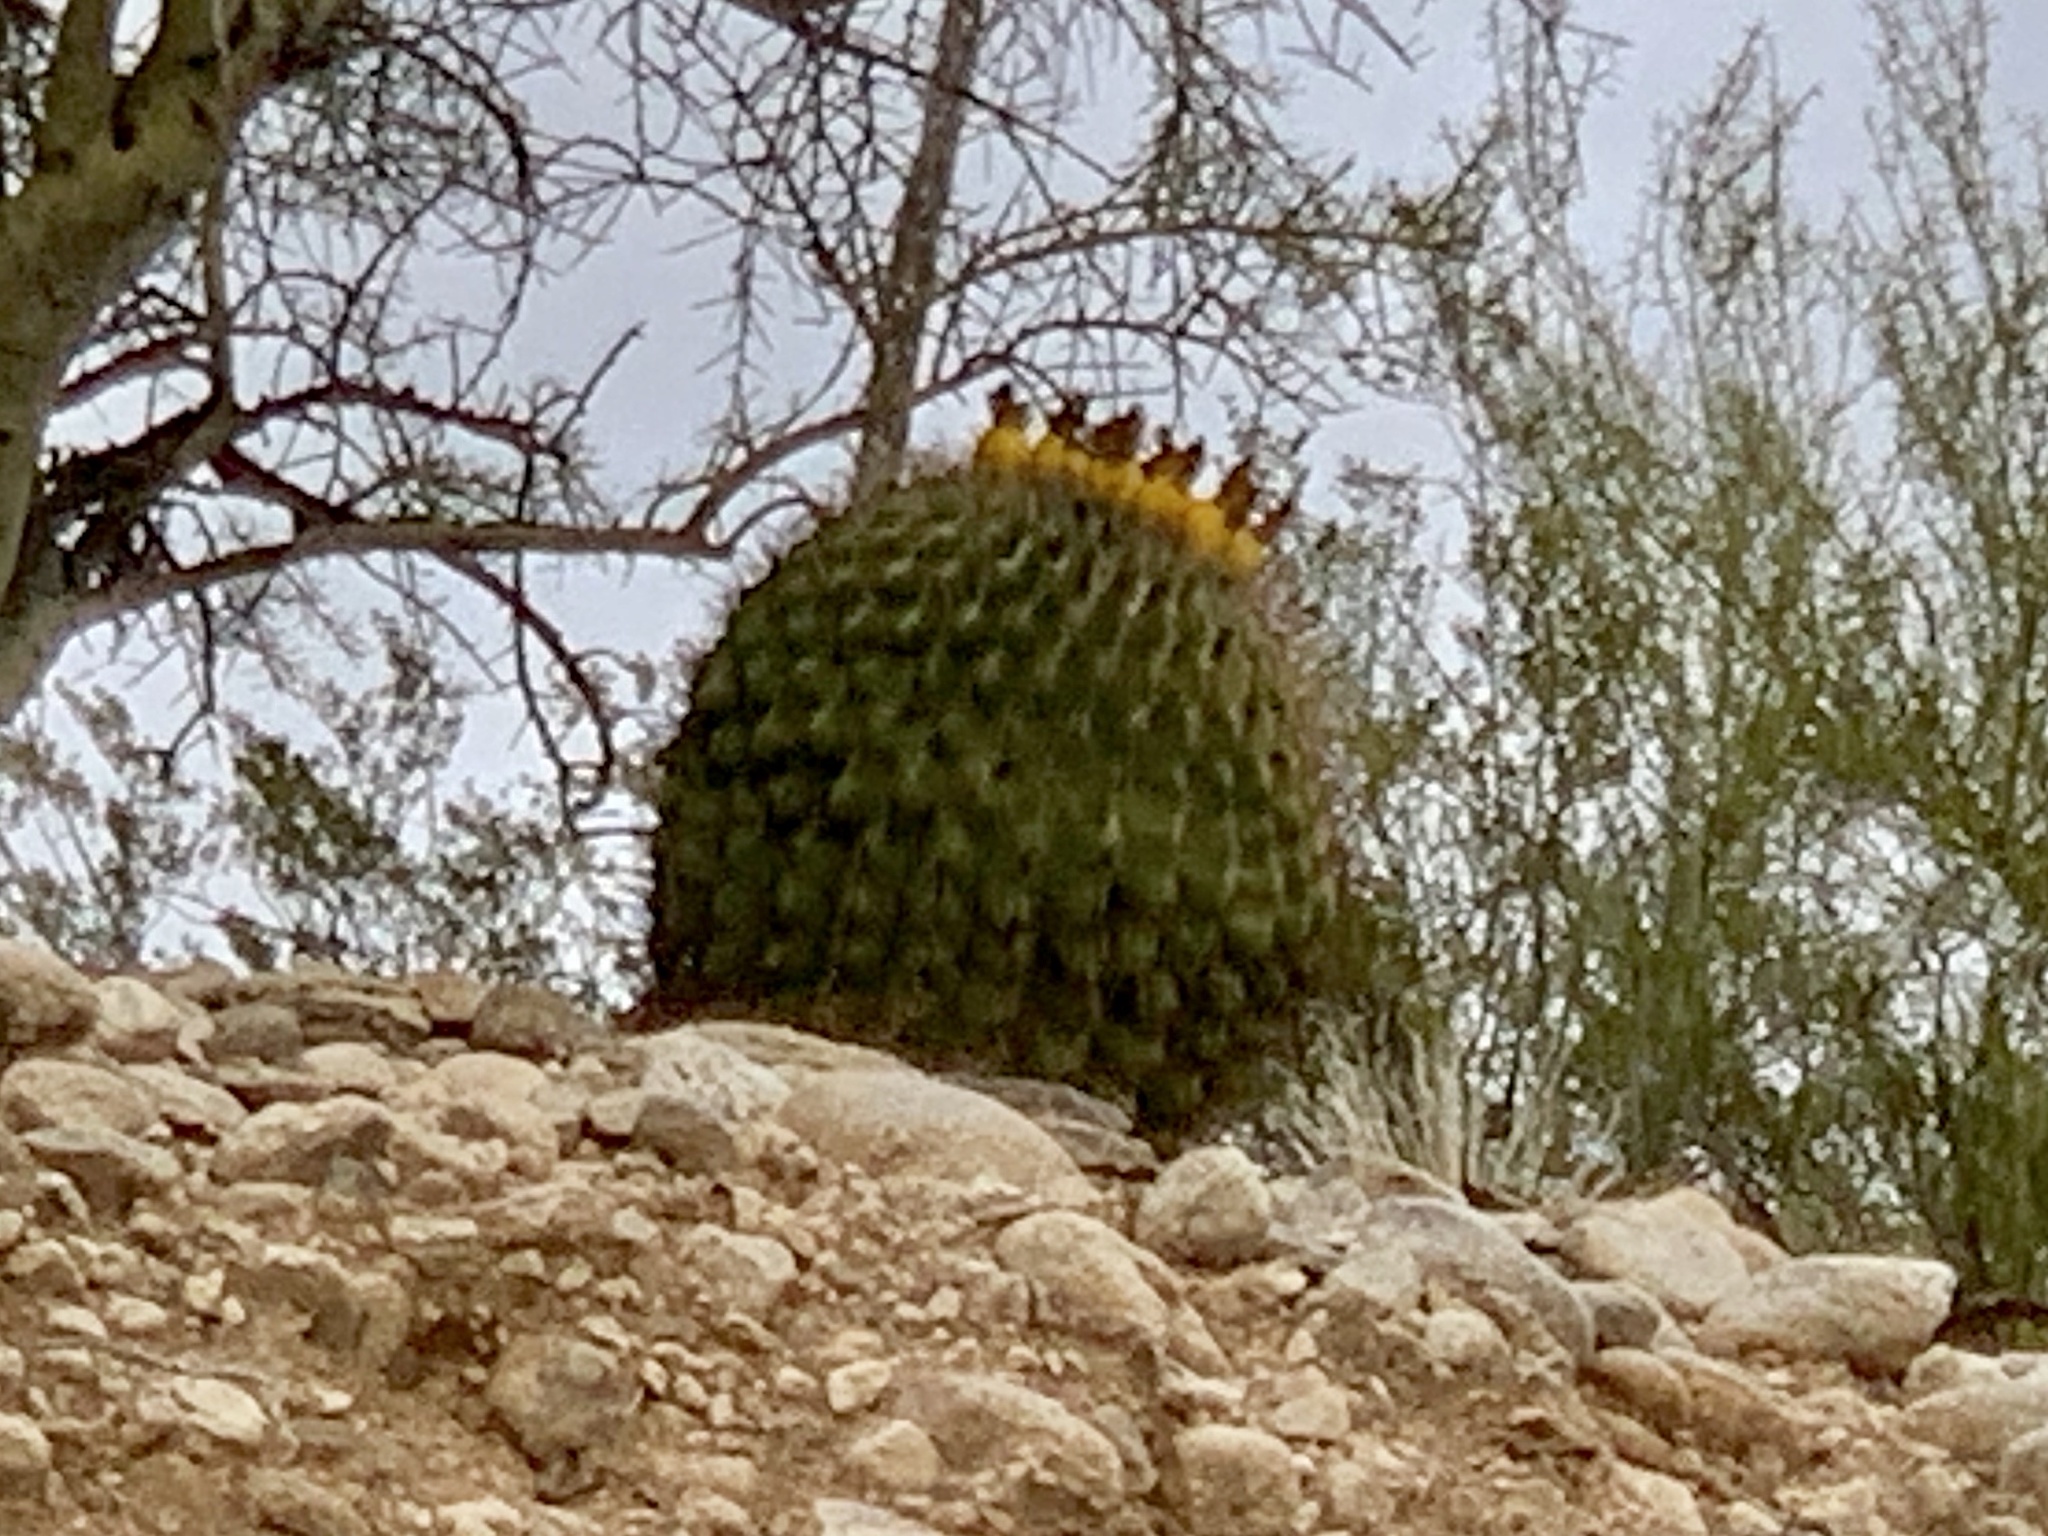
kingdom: Plantae
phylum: Tracheophyta
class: Magnoliopsida
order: Caryophyllales
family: Cactaceae
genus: Ferocactus
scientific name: Ferocactus wislizeni
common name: Candy barrel cactus
